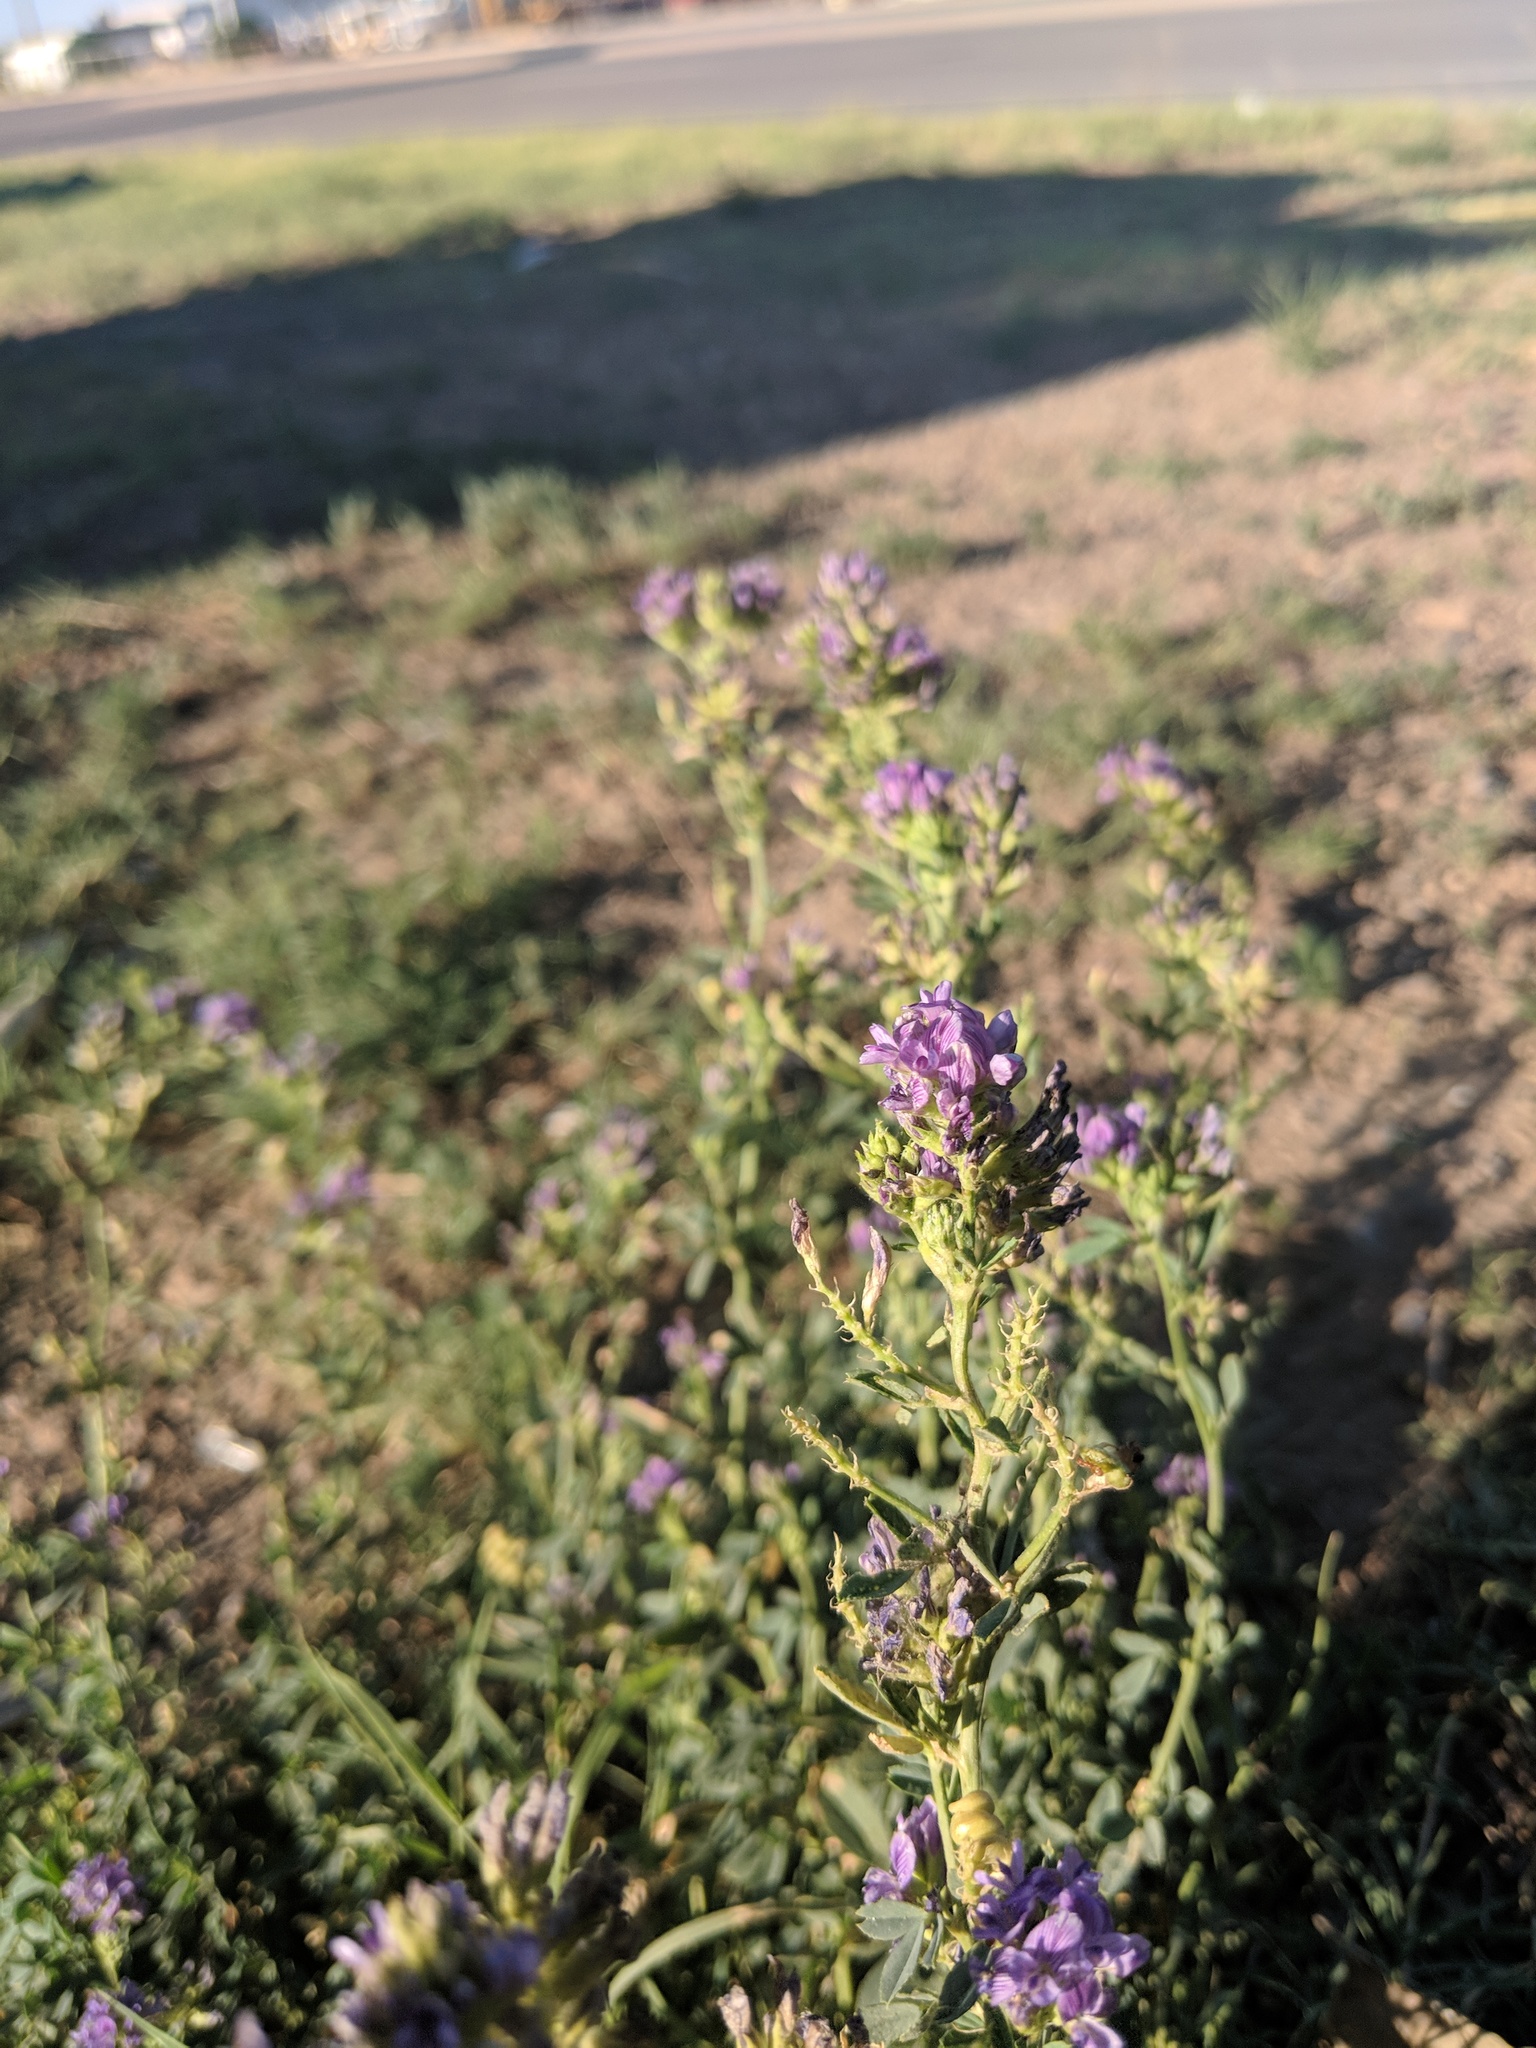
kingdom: Plantae
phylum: Tracheophyta
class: Magnoliopsida
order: Fabales
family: Fabaceae
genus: Medicago
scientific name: Medicago sativa
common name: Alfalfa
